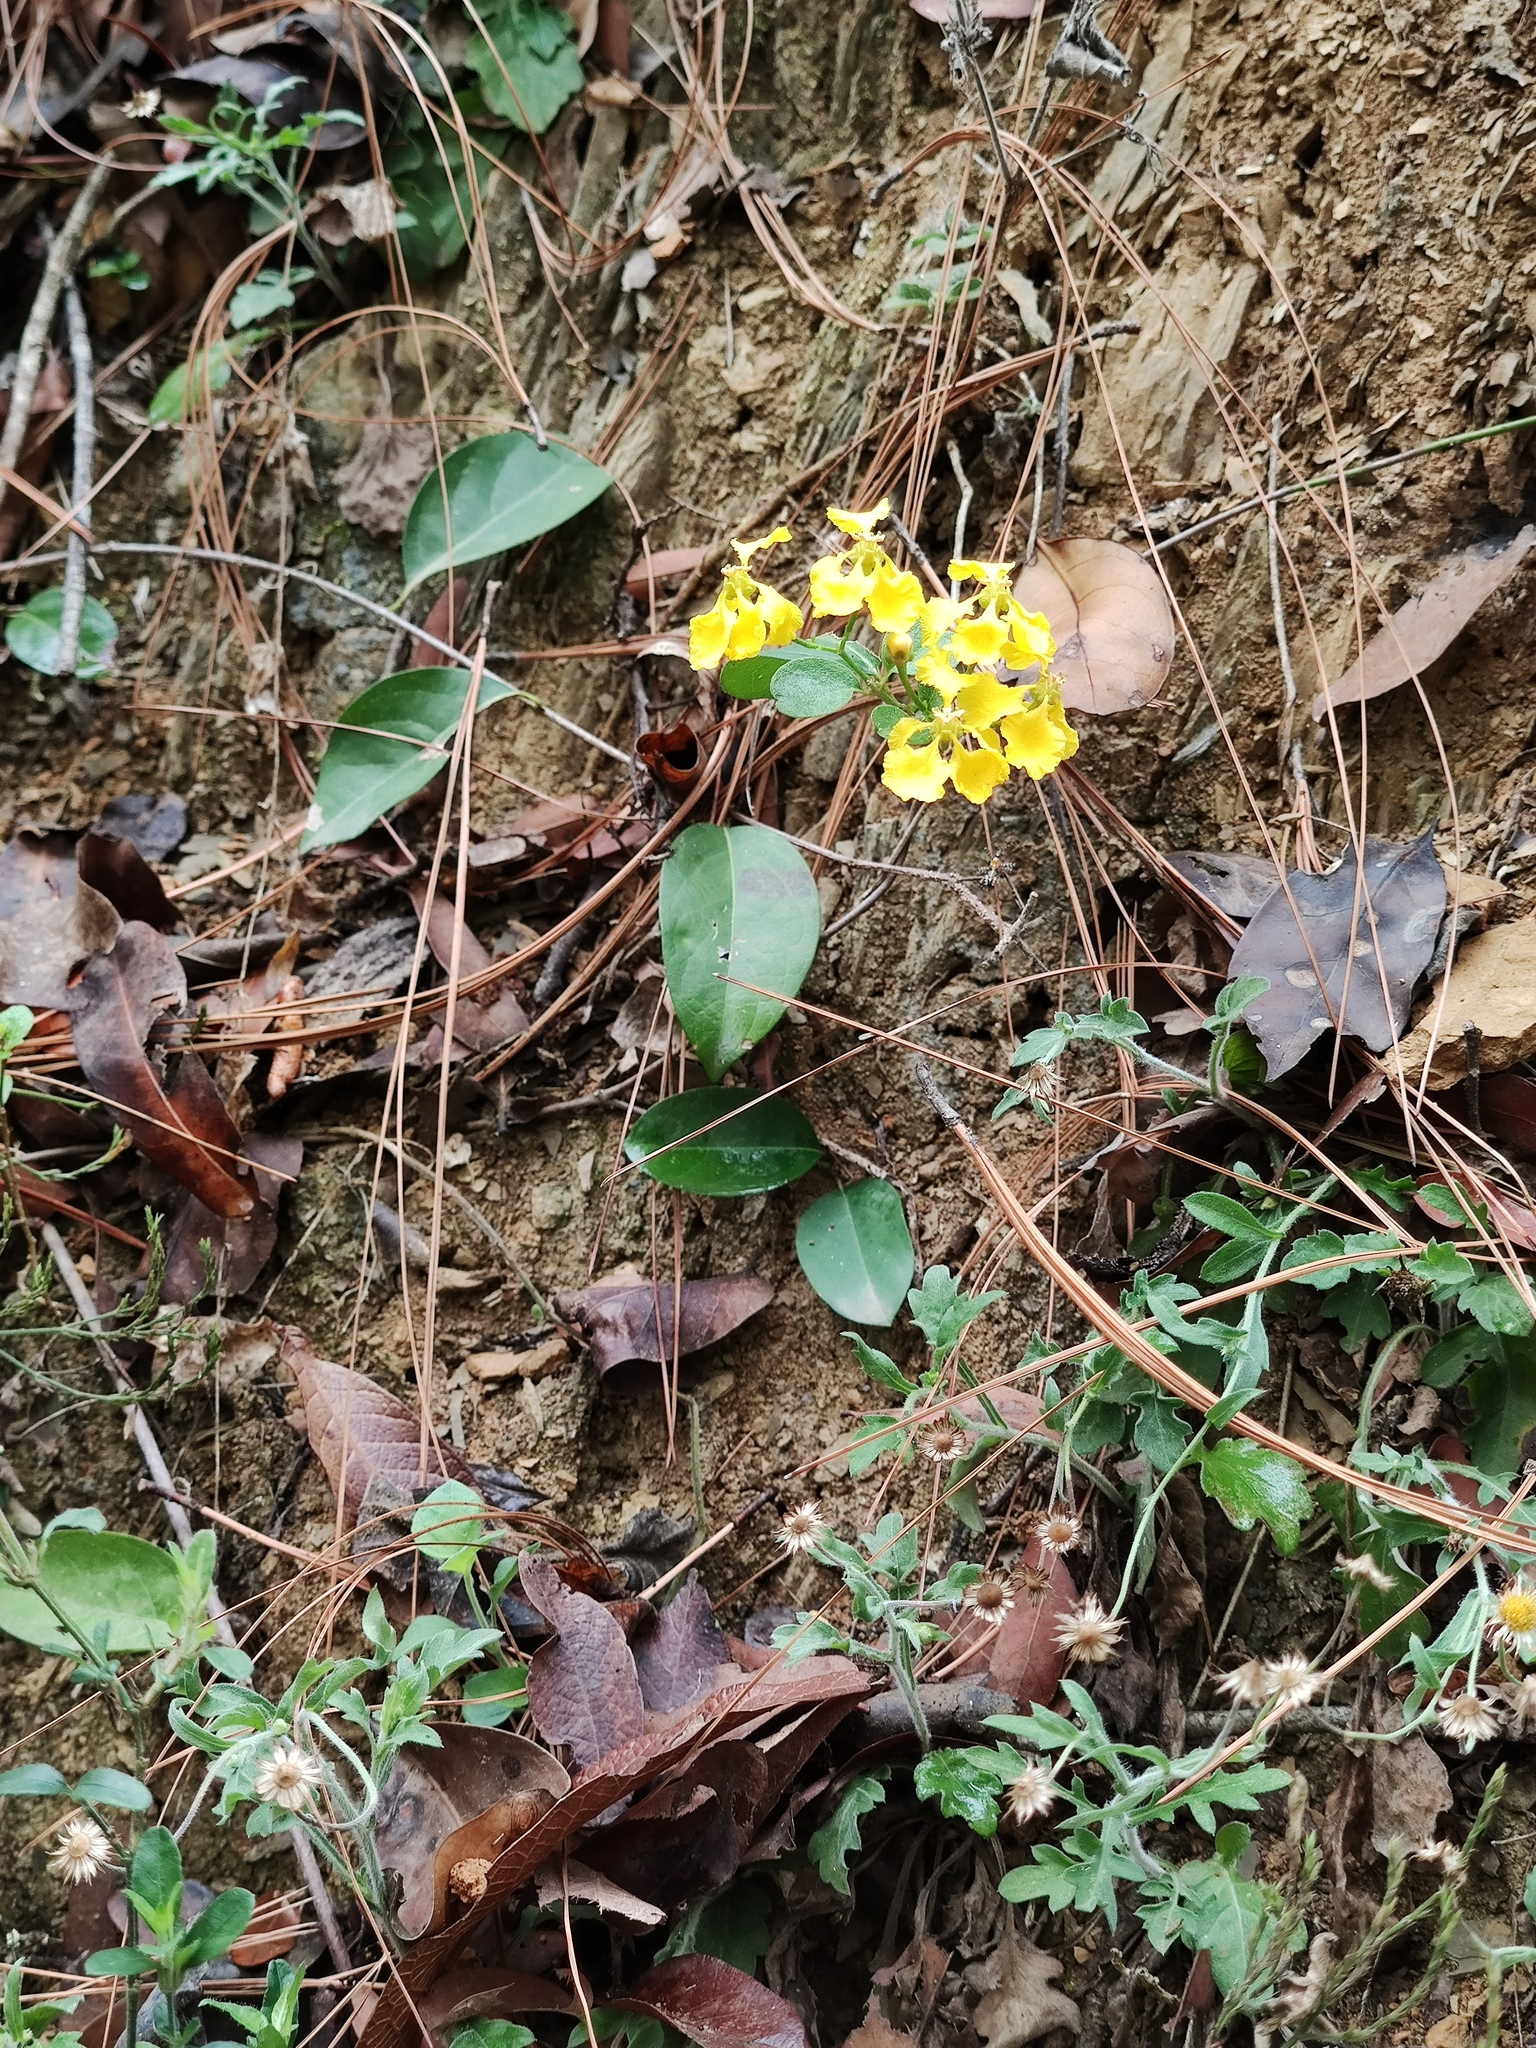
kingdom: Plantae
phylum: Tracheophyta
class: Magnoliopsida
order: Malpighiales
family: Malpighiaceae
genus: Callaeum
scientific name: Callaeum macropterum
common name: Mexican butterfly-vine
